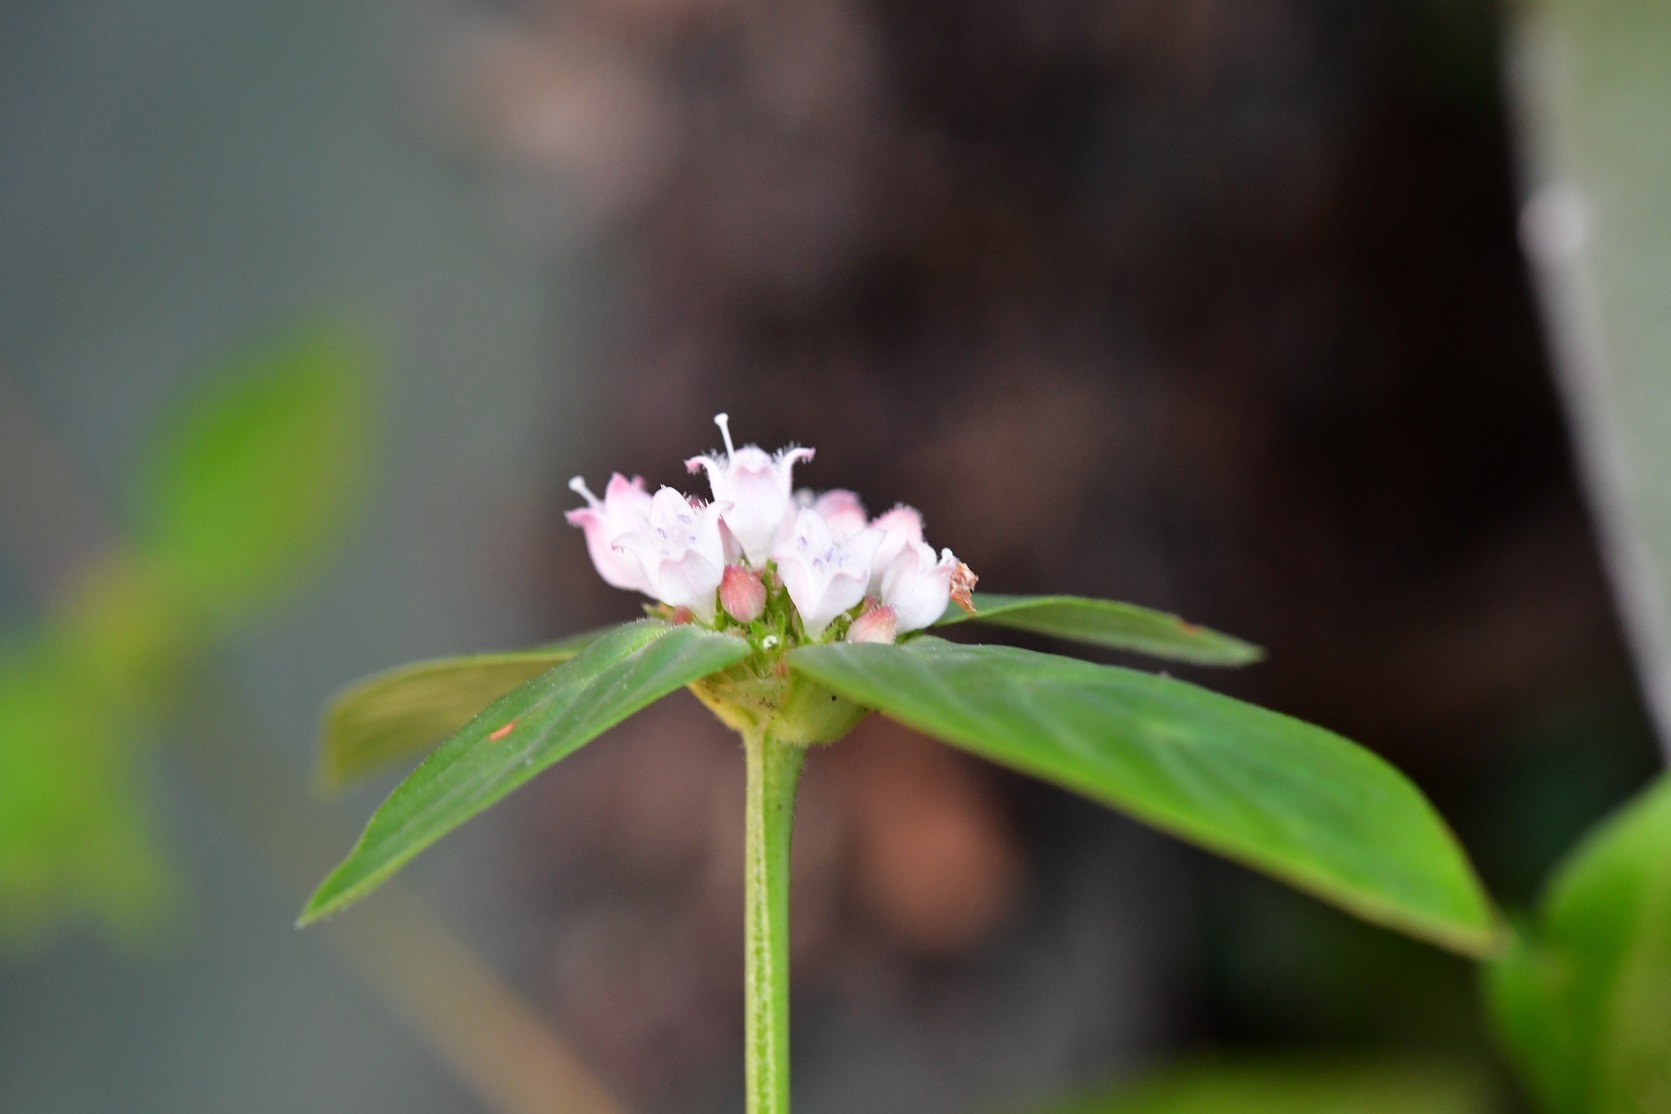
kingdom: Plantae
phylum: Tracheophyta
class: Magnoliopsida
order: Gentianales
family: Rubiaceae
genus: Spermacoce
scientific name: Spermacoce remota
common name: Woodland false buttonweed
